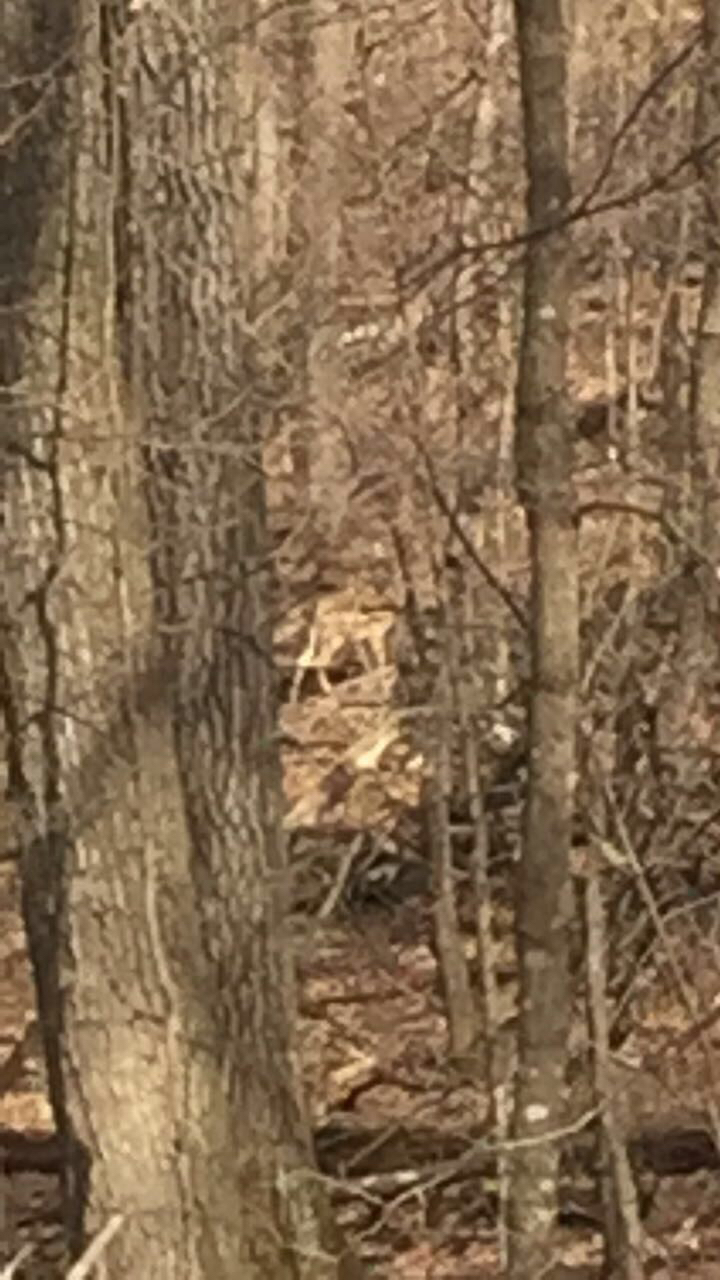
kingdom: Animalia
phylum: Chordata
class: Mammalia
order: Artiodactyla
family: Cervidae
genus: Odocoileus
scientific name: Odocoileus virginianus
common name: White-tailed deer
